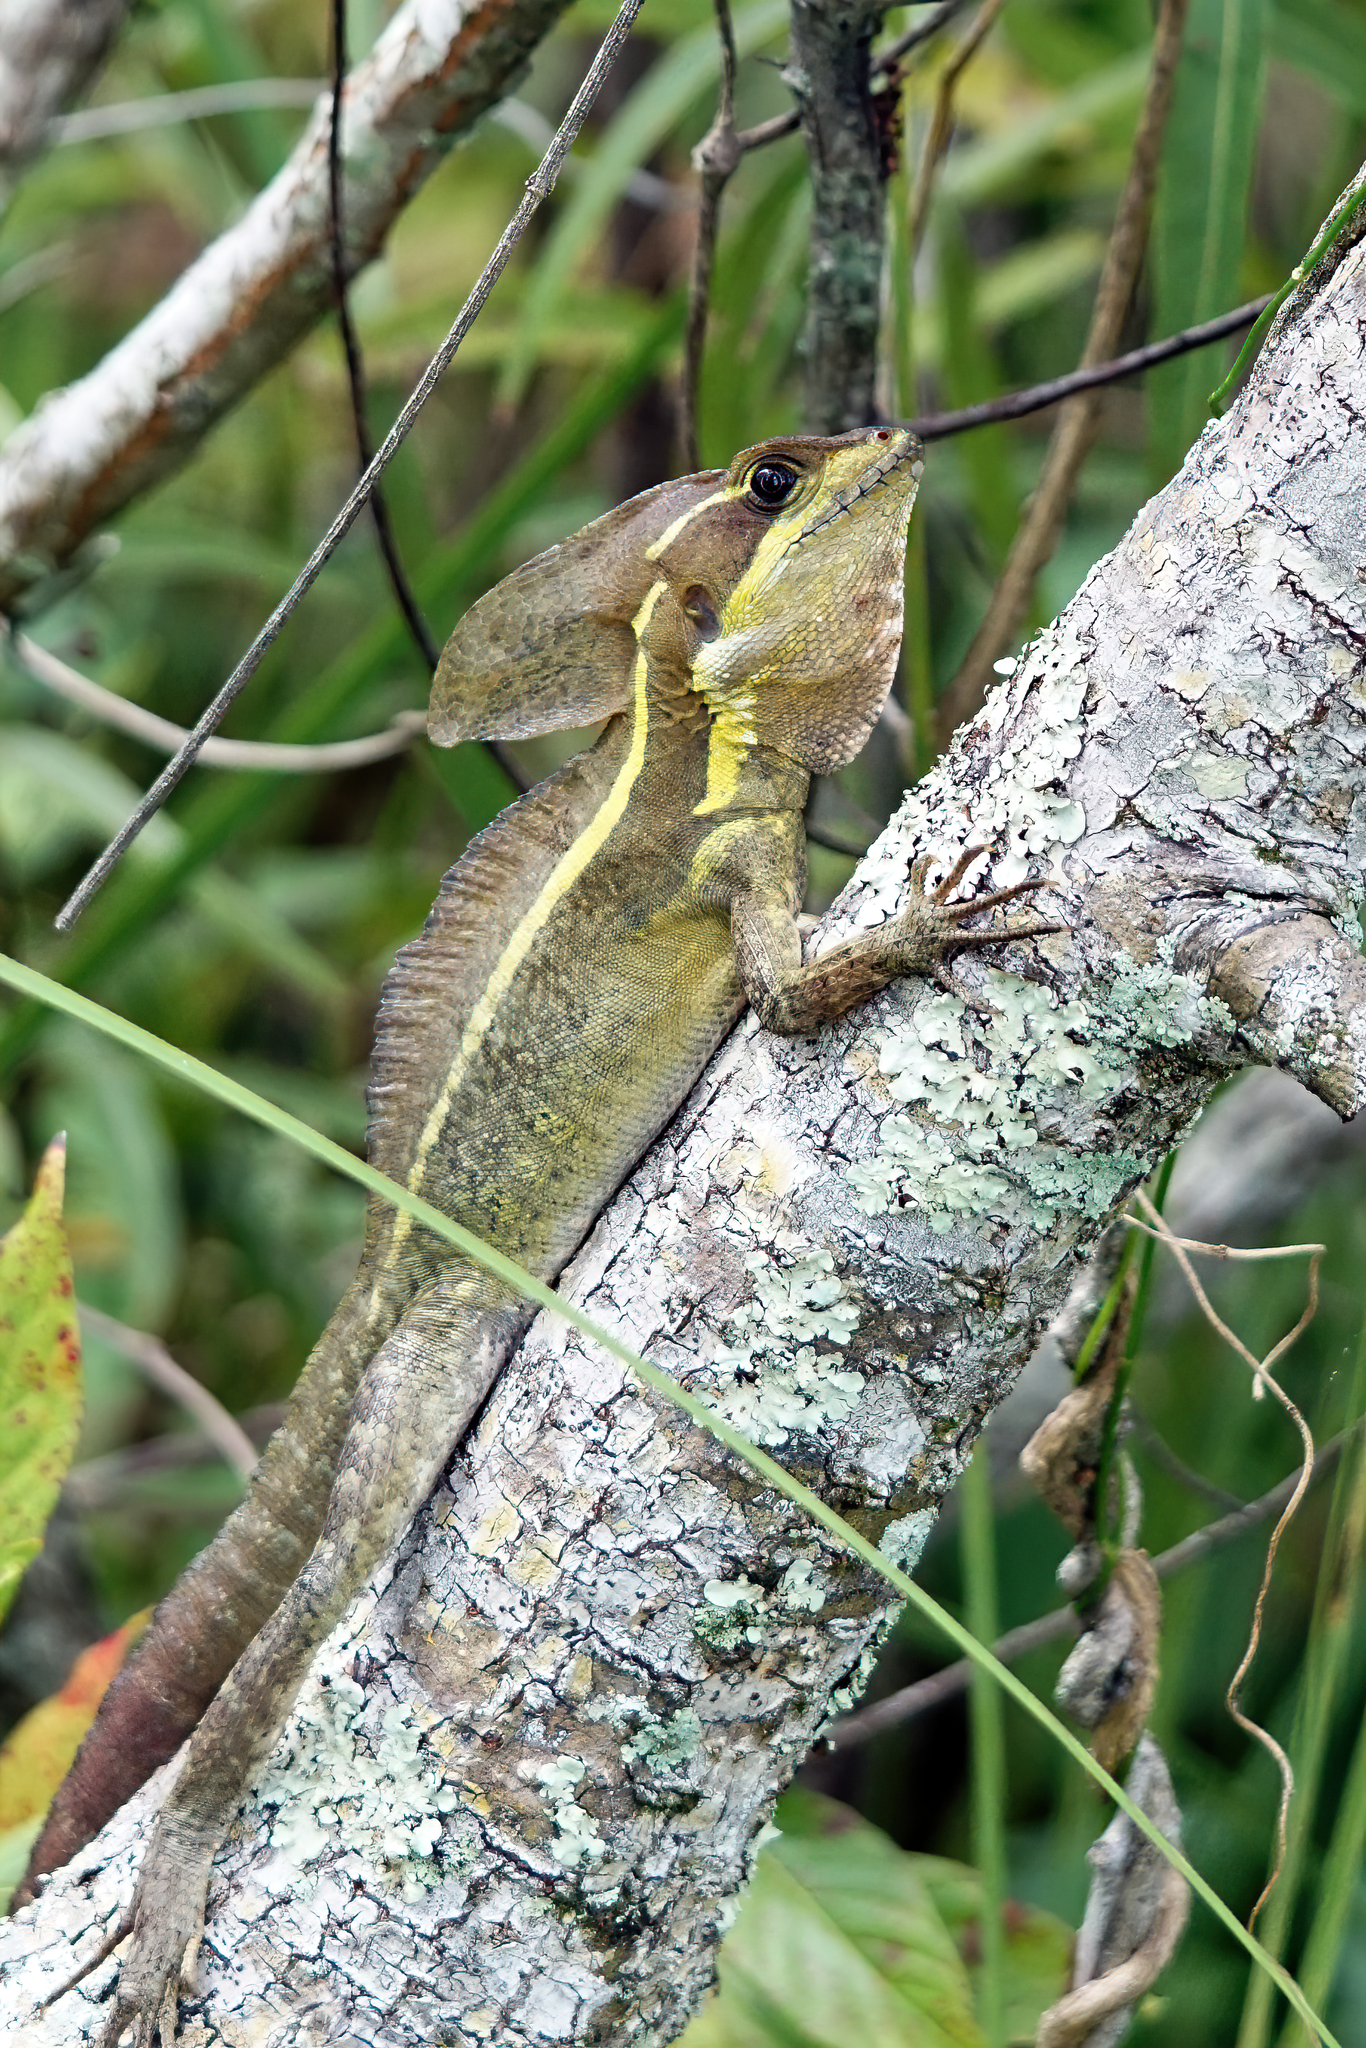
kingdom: Animalia
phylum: Chordata
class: Squamata
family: Corytophanidae
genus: Basiliscus
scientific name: Basiliscus vittatus
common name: Brown basilisk
